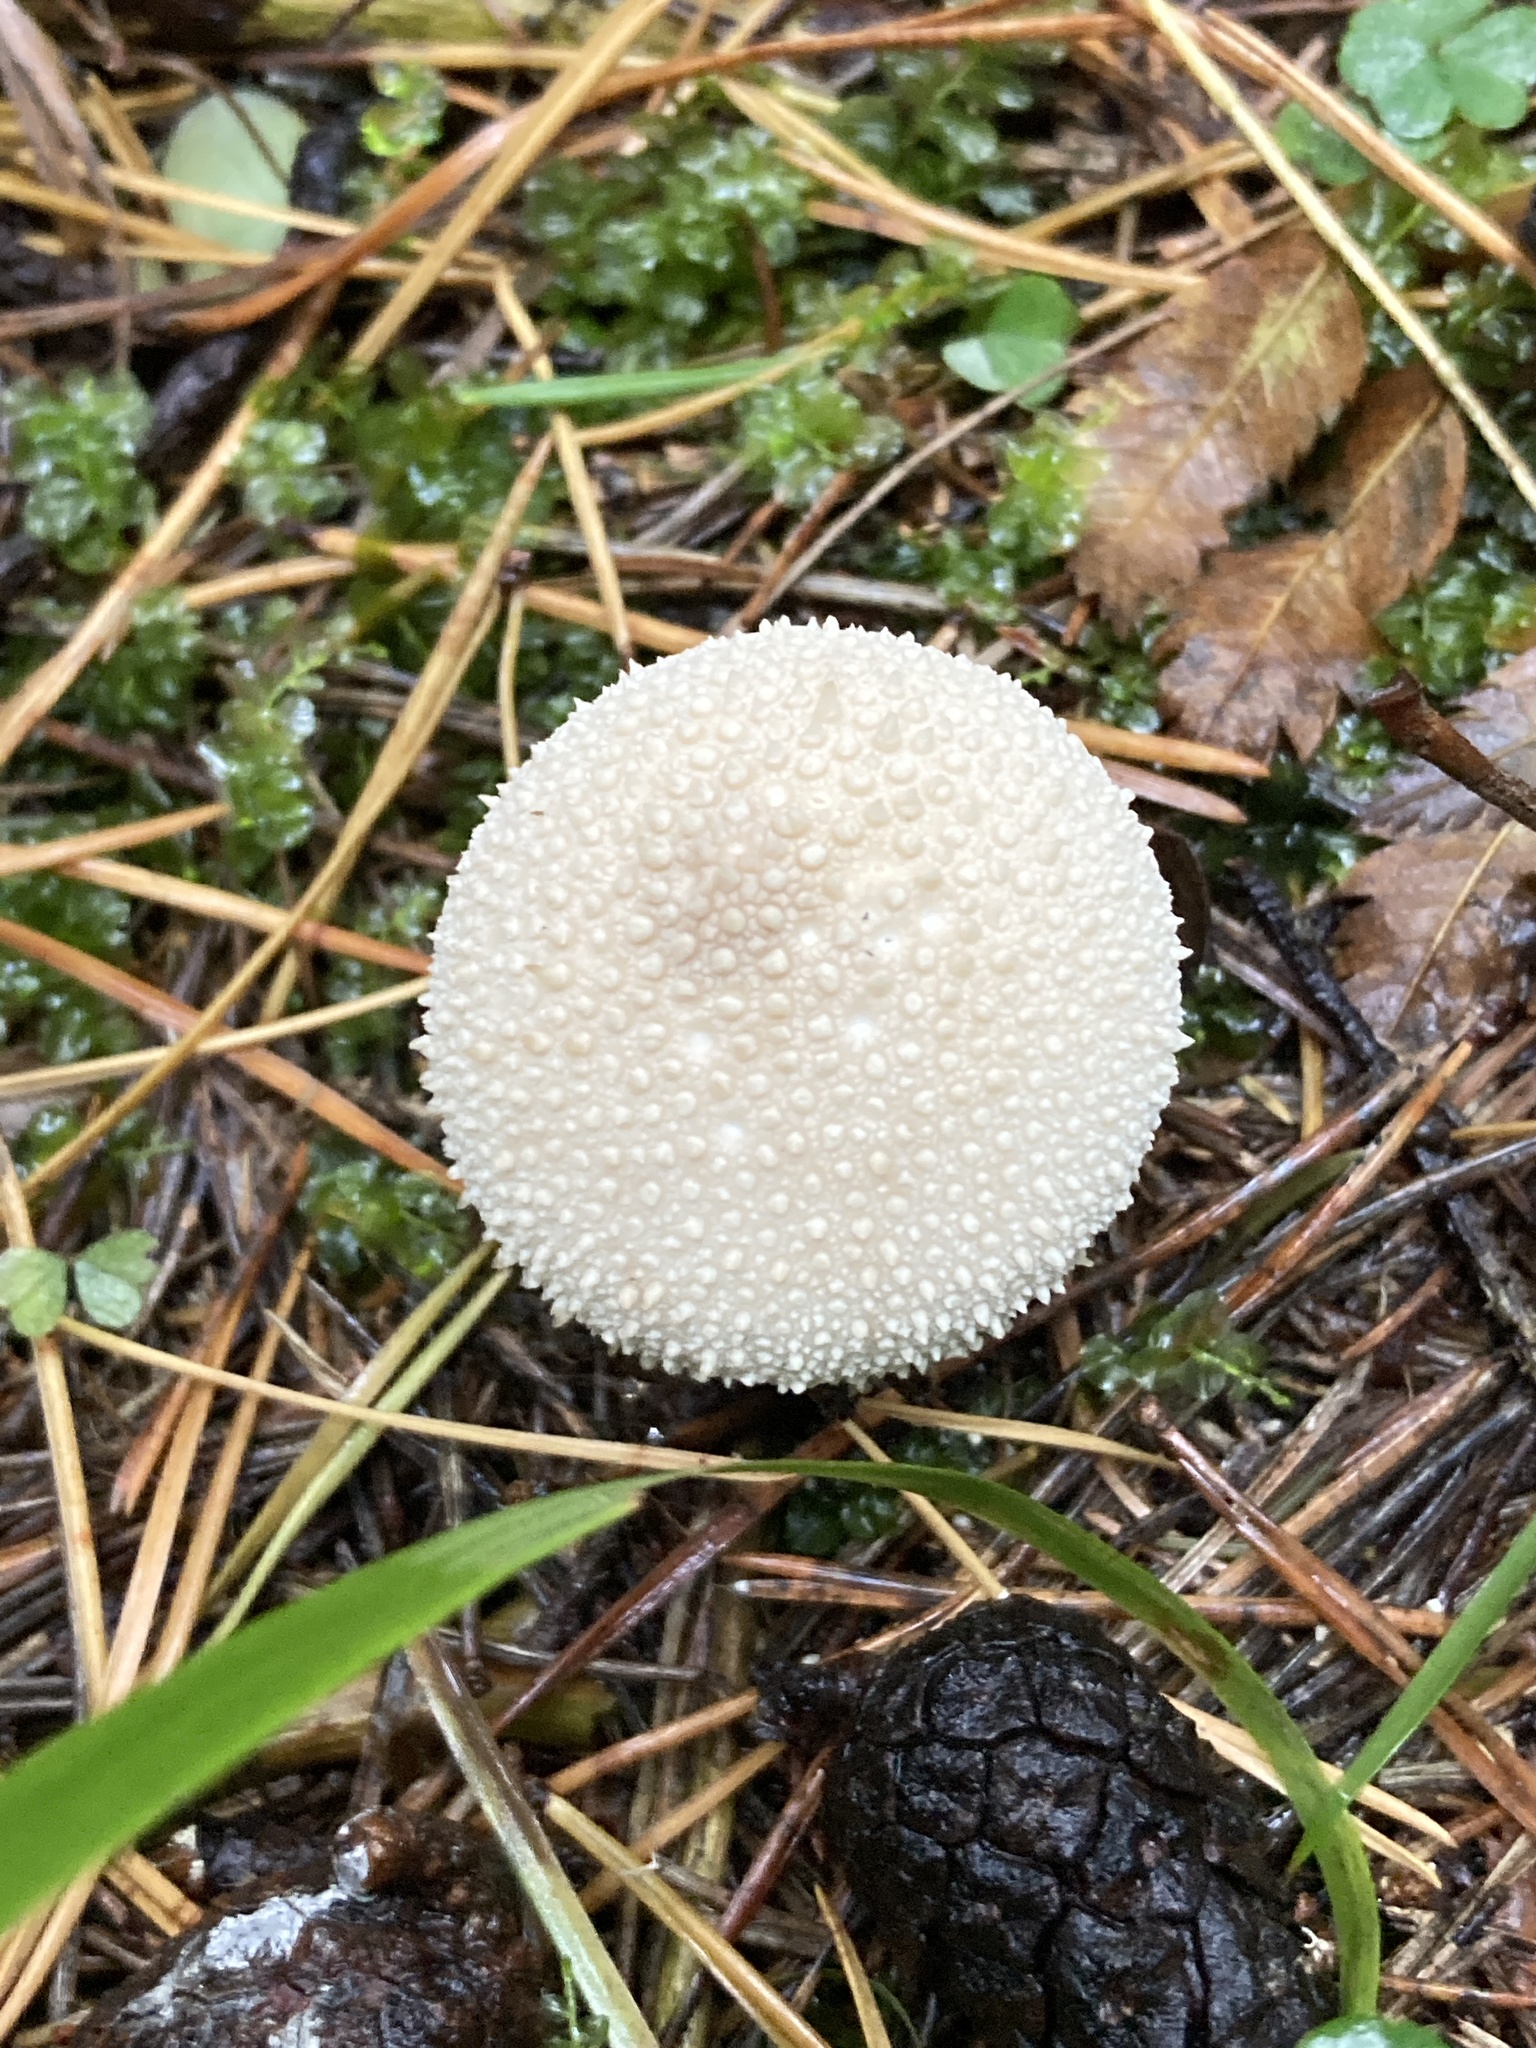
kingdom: Fungi
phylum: Basidiomycota
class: Agaricomycetes
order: Agaricales
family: Lycoperdaceae
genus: Lycoperdon
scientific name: Lycoperdon perlatum
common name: Common puffball
